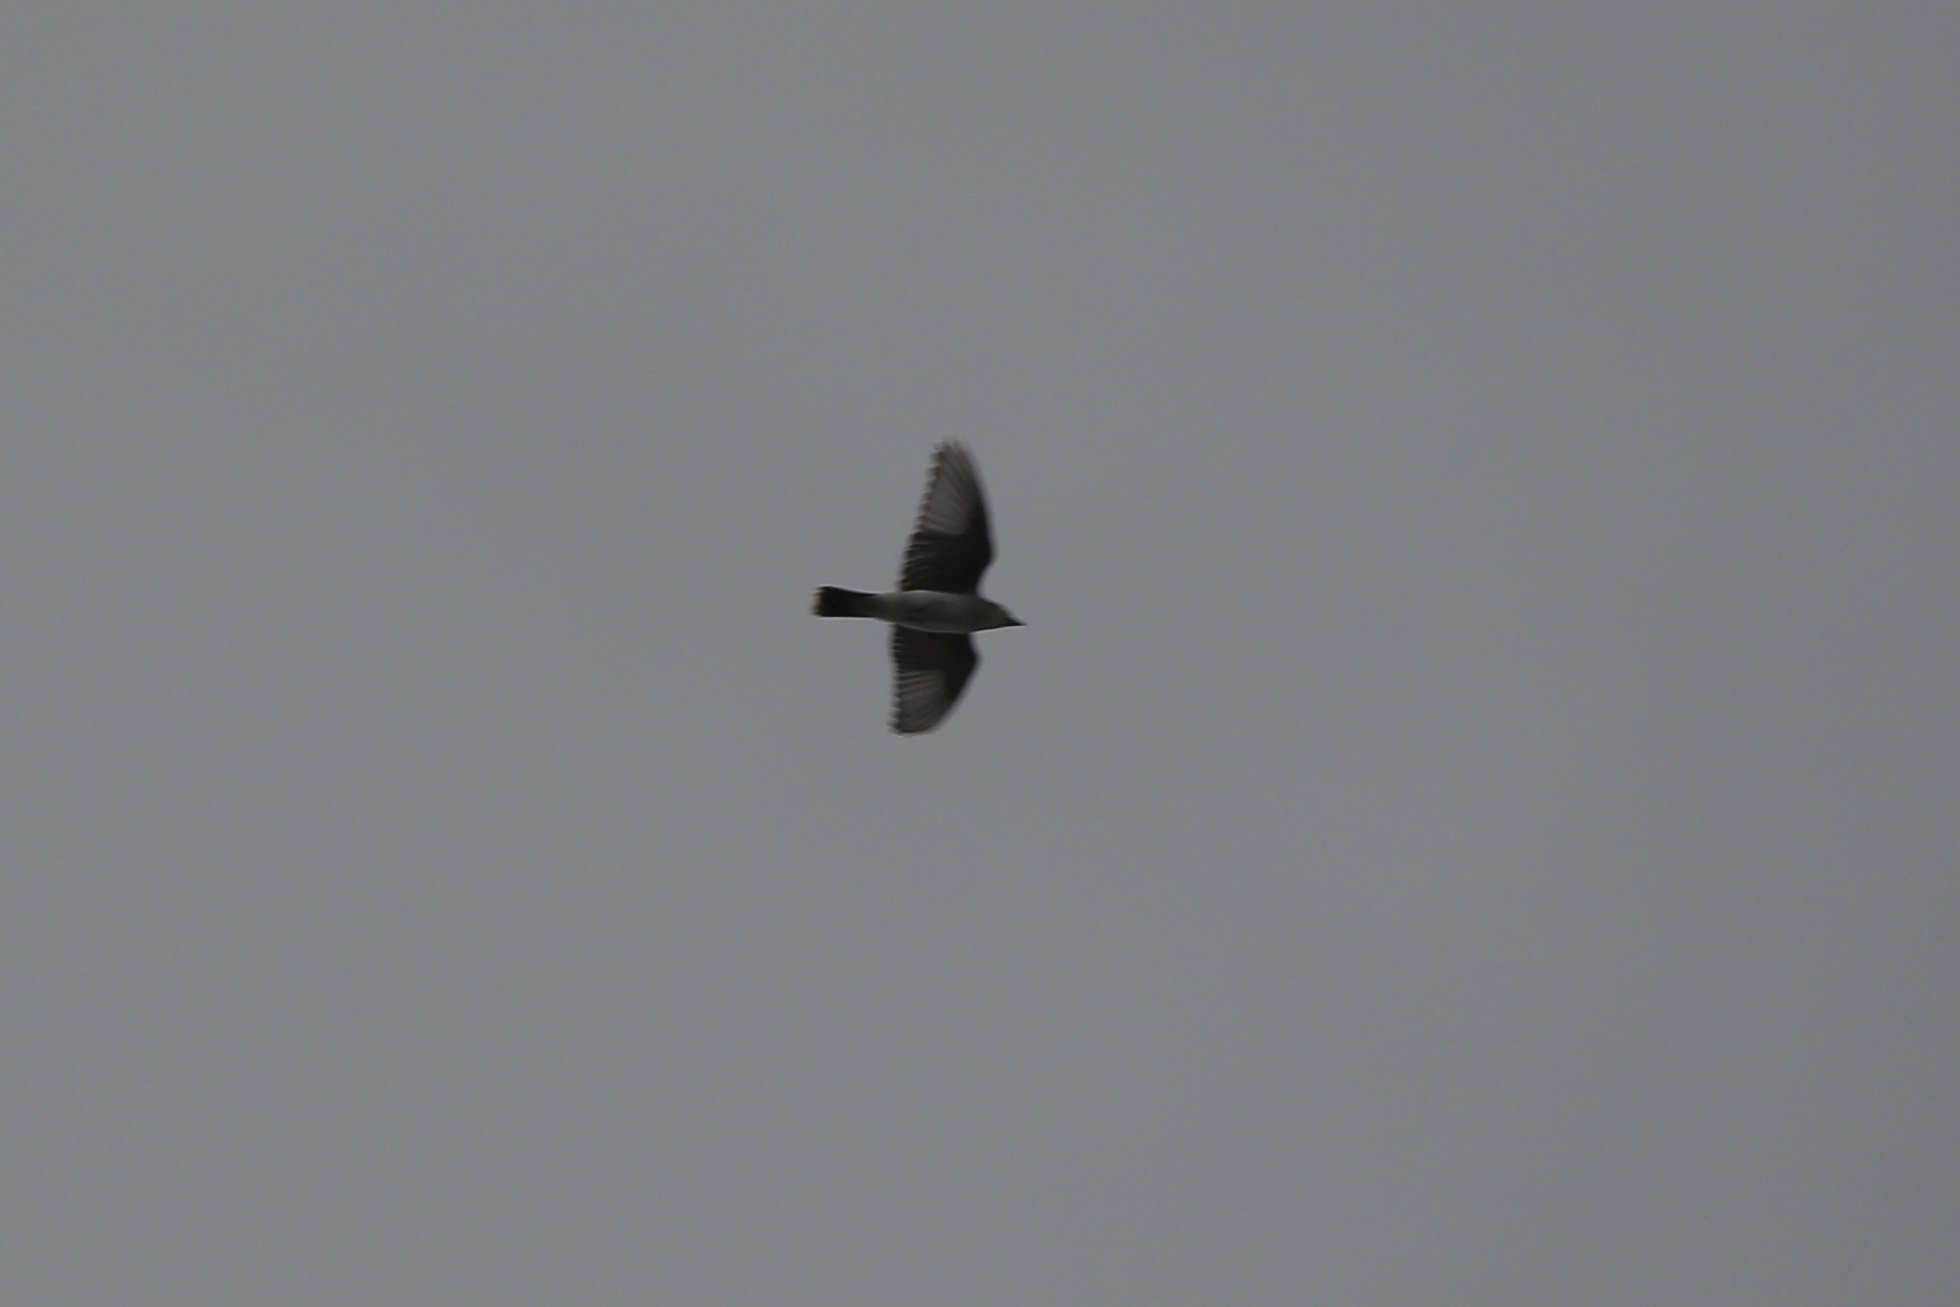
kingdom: Animalia
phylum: Chordata
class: Aves
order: Passeriformes
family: Tyrannidae
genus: Tyrannus
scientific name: Tyrannus tyrannus
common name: Eastern kingbird
